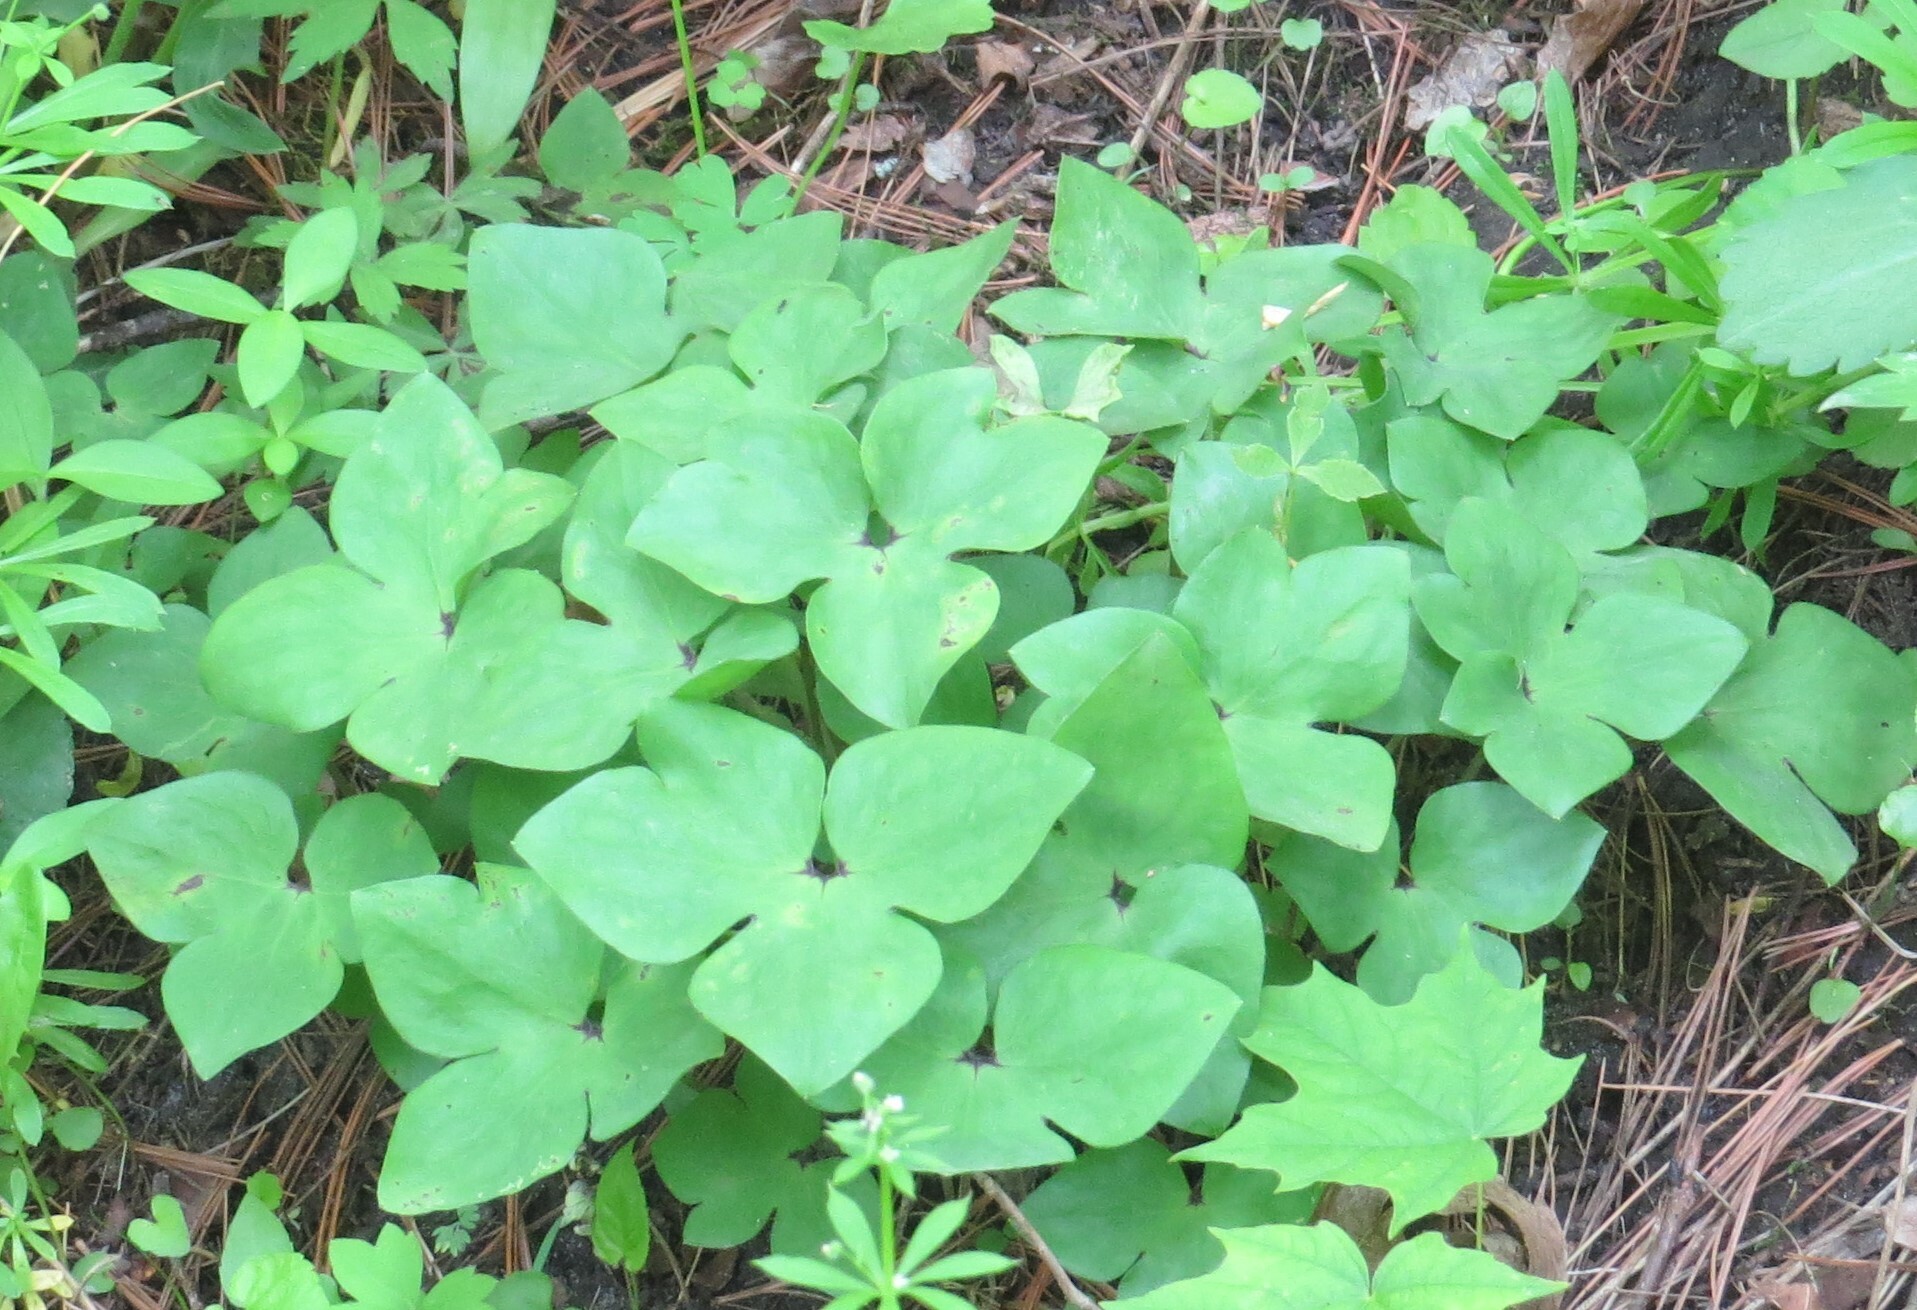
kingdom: Plantae
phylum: Tracheophyta
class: Magnoliopsida
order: Ranunculales
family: Ranunculaceae
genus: Hepatica
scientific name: Hepatica acutiloba
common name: Sharp-lobed hepatica
